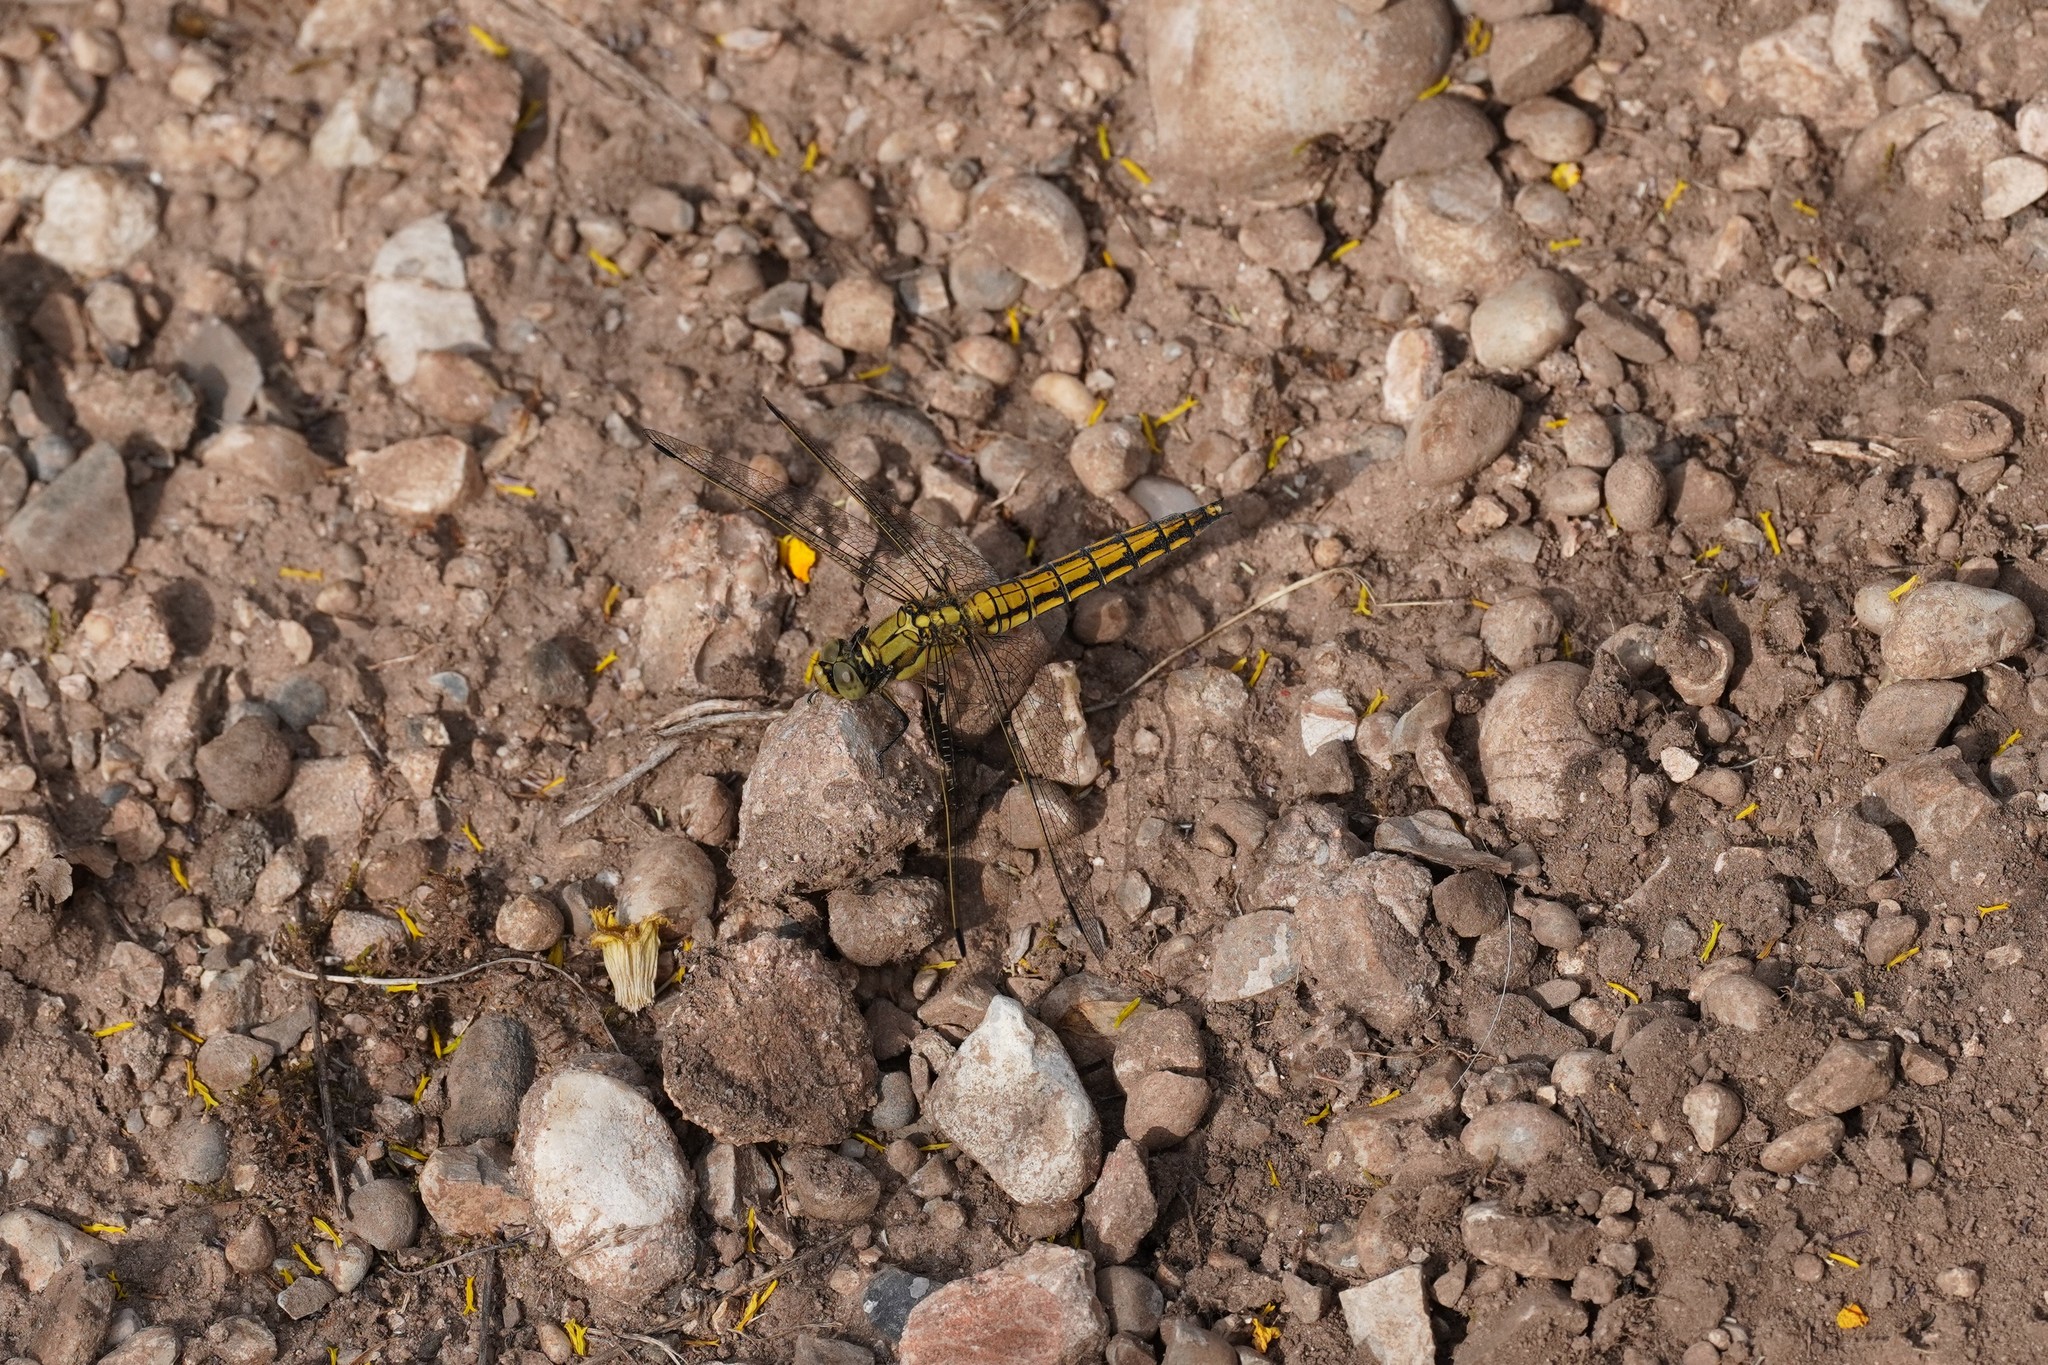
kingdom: Animalia
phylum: Arthropoda
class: Insecta
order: Odonata
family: Libellulidae
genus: Orthetrum
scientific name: Orthetrum cancellatum
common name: Black-tailed skimmer
